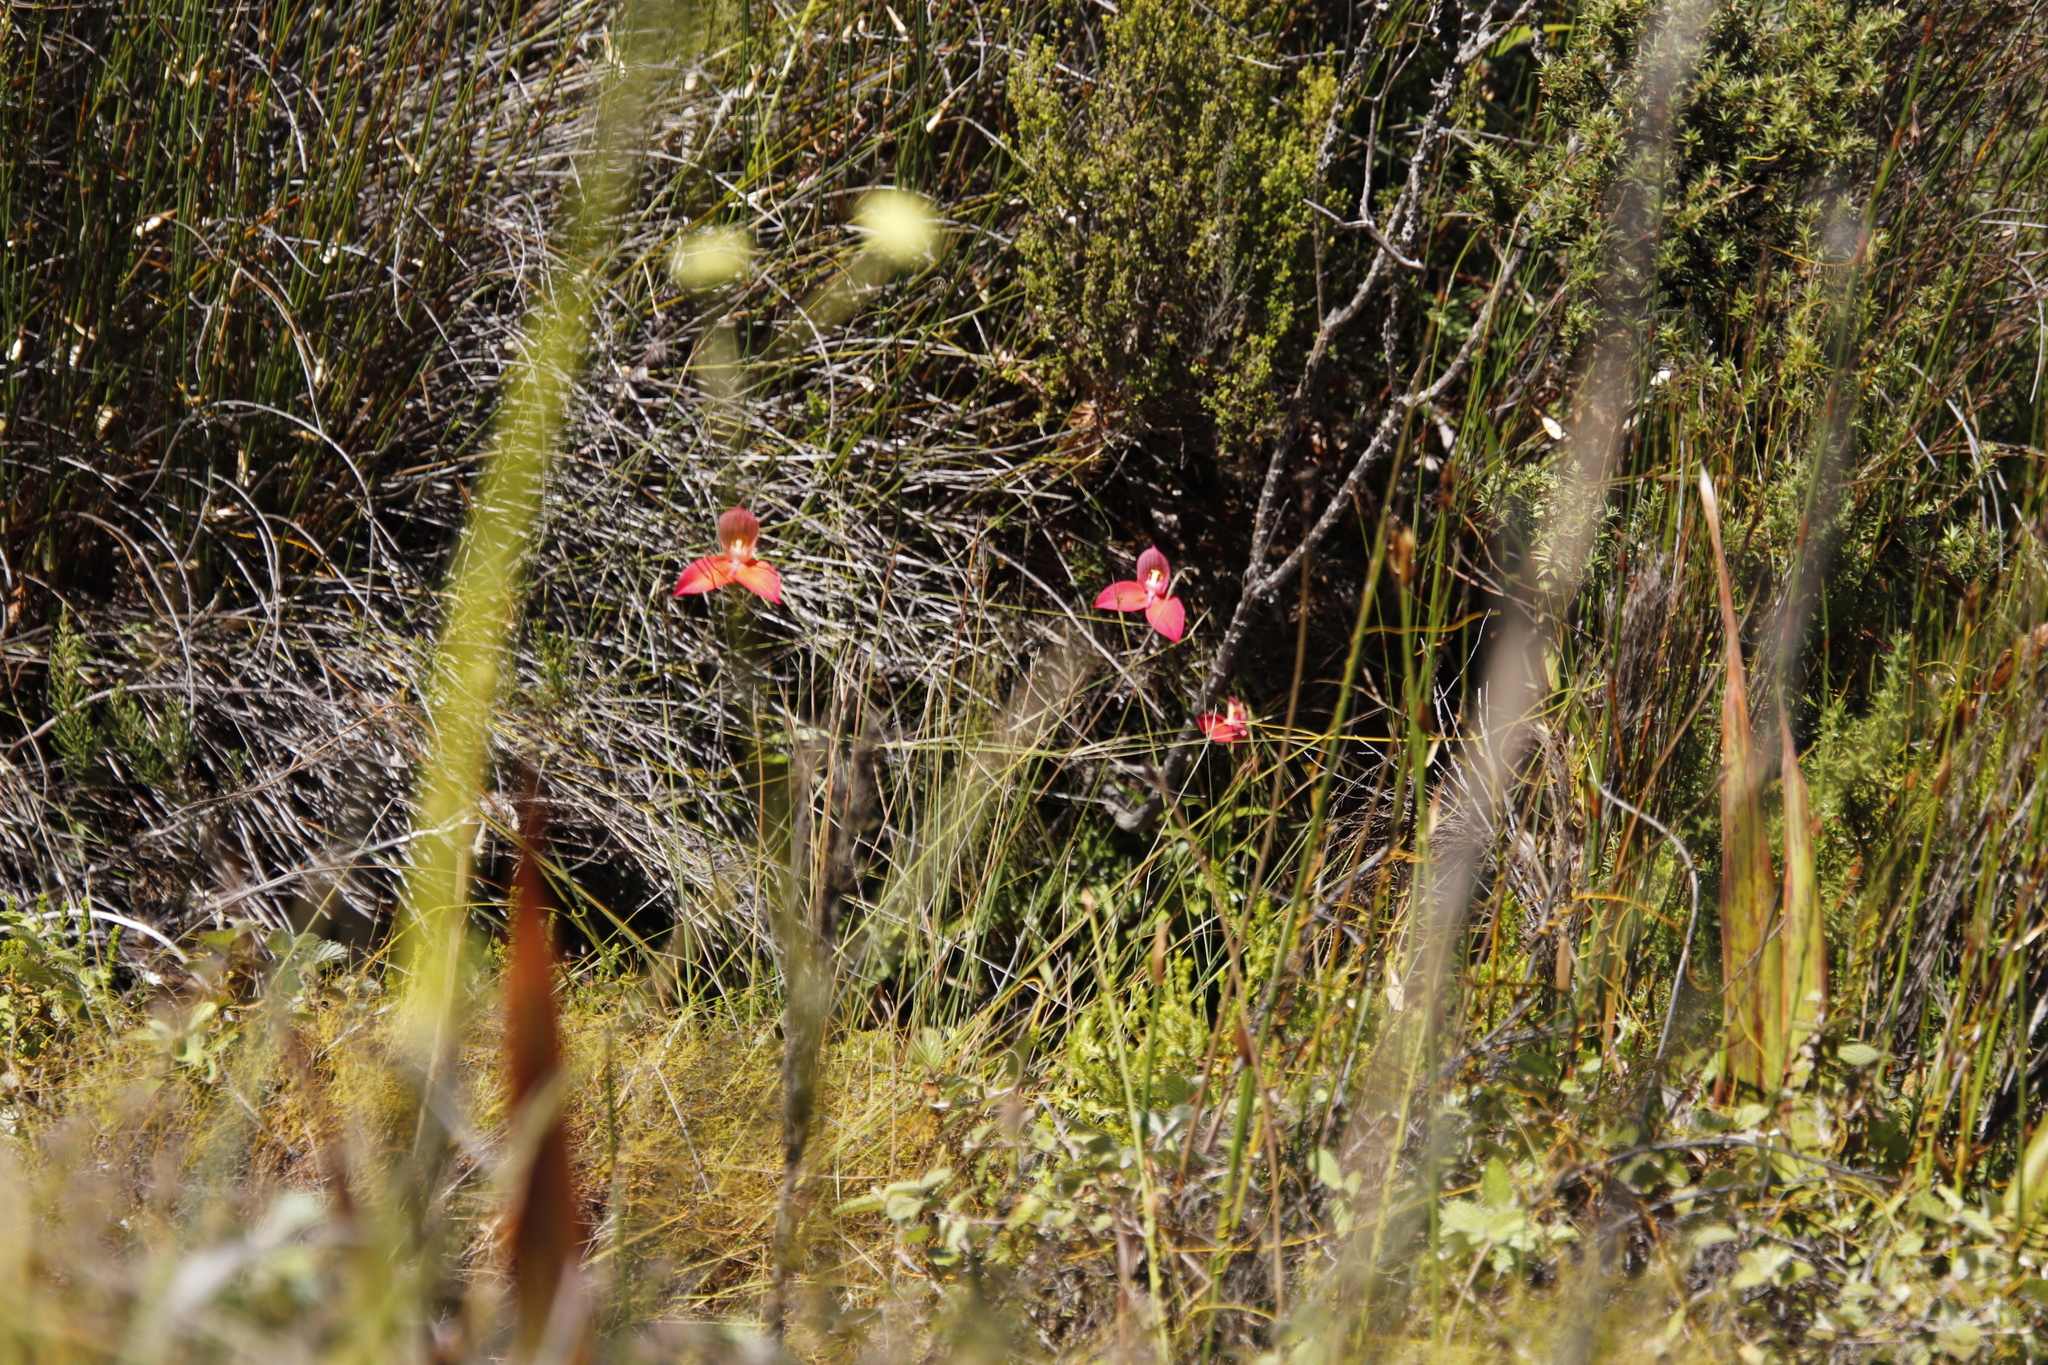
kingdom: Plantae
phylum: Tracheophyta
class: Liliopsida
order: Asparagales
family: Orchidaceae
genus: Disa
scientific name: Disa uniflora
